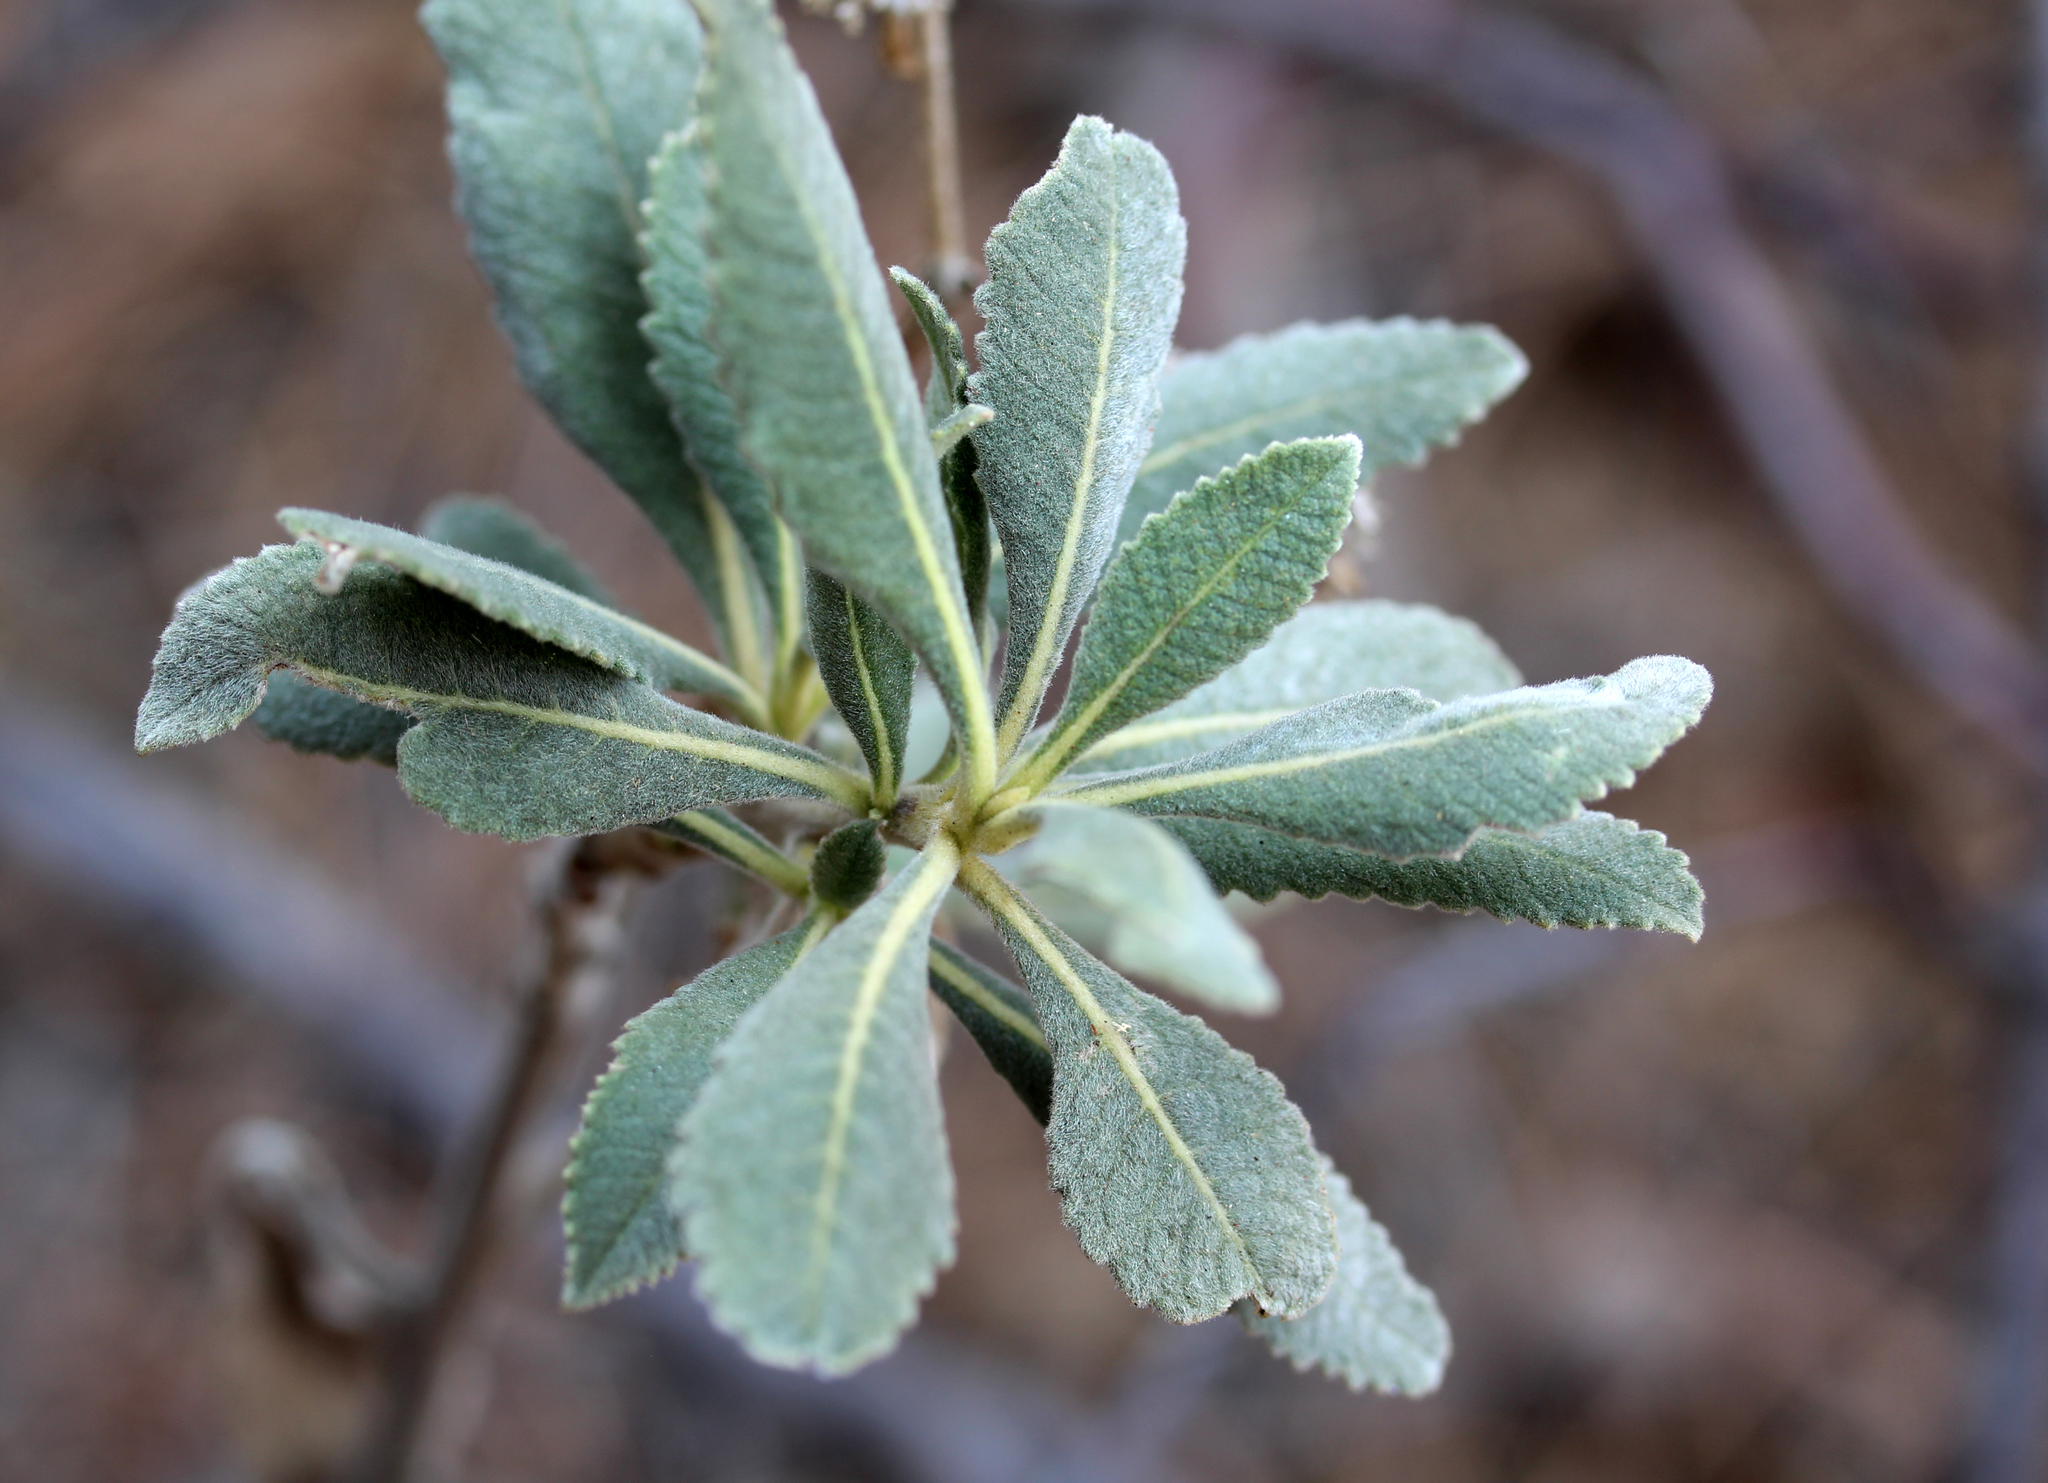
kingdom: Plantae
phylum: Tracheophyta
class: Magnoliopsida
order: Boraginales
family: Namaceae
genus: Eriodictyon
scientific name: Eriodictyon crassifolium
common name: Thick-leaf yerba-santa
